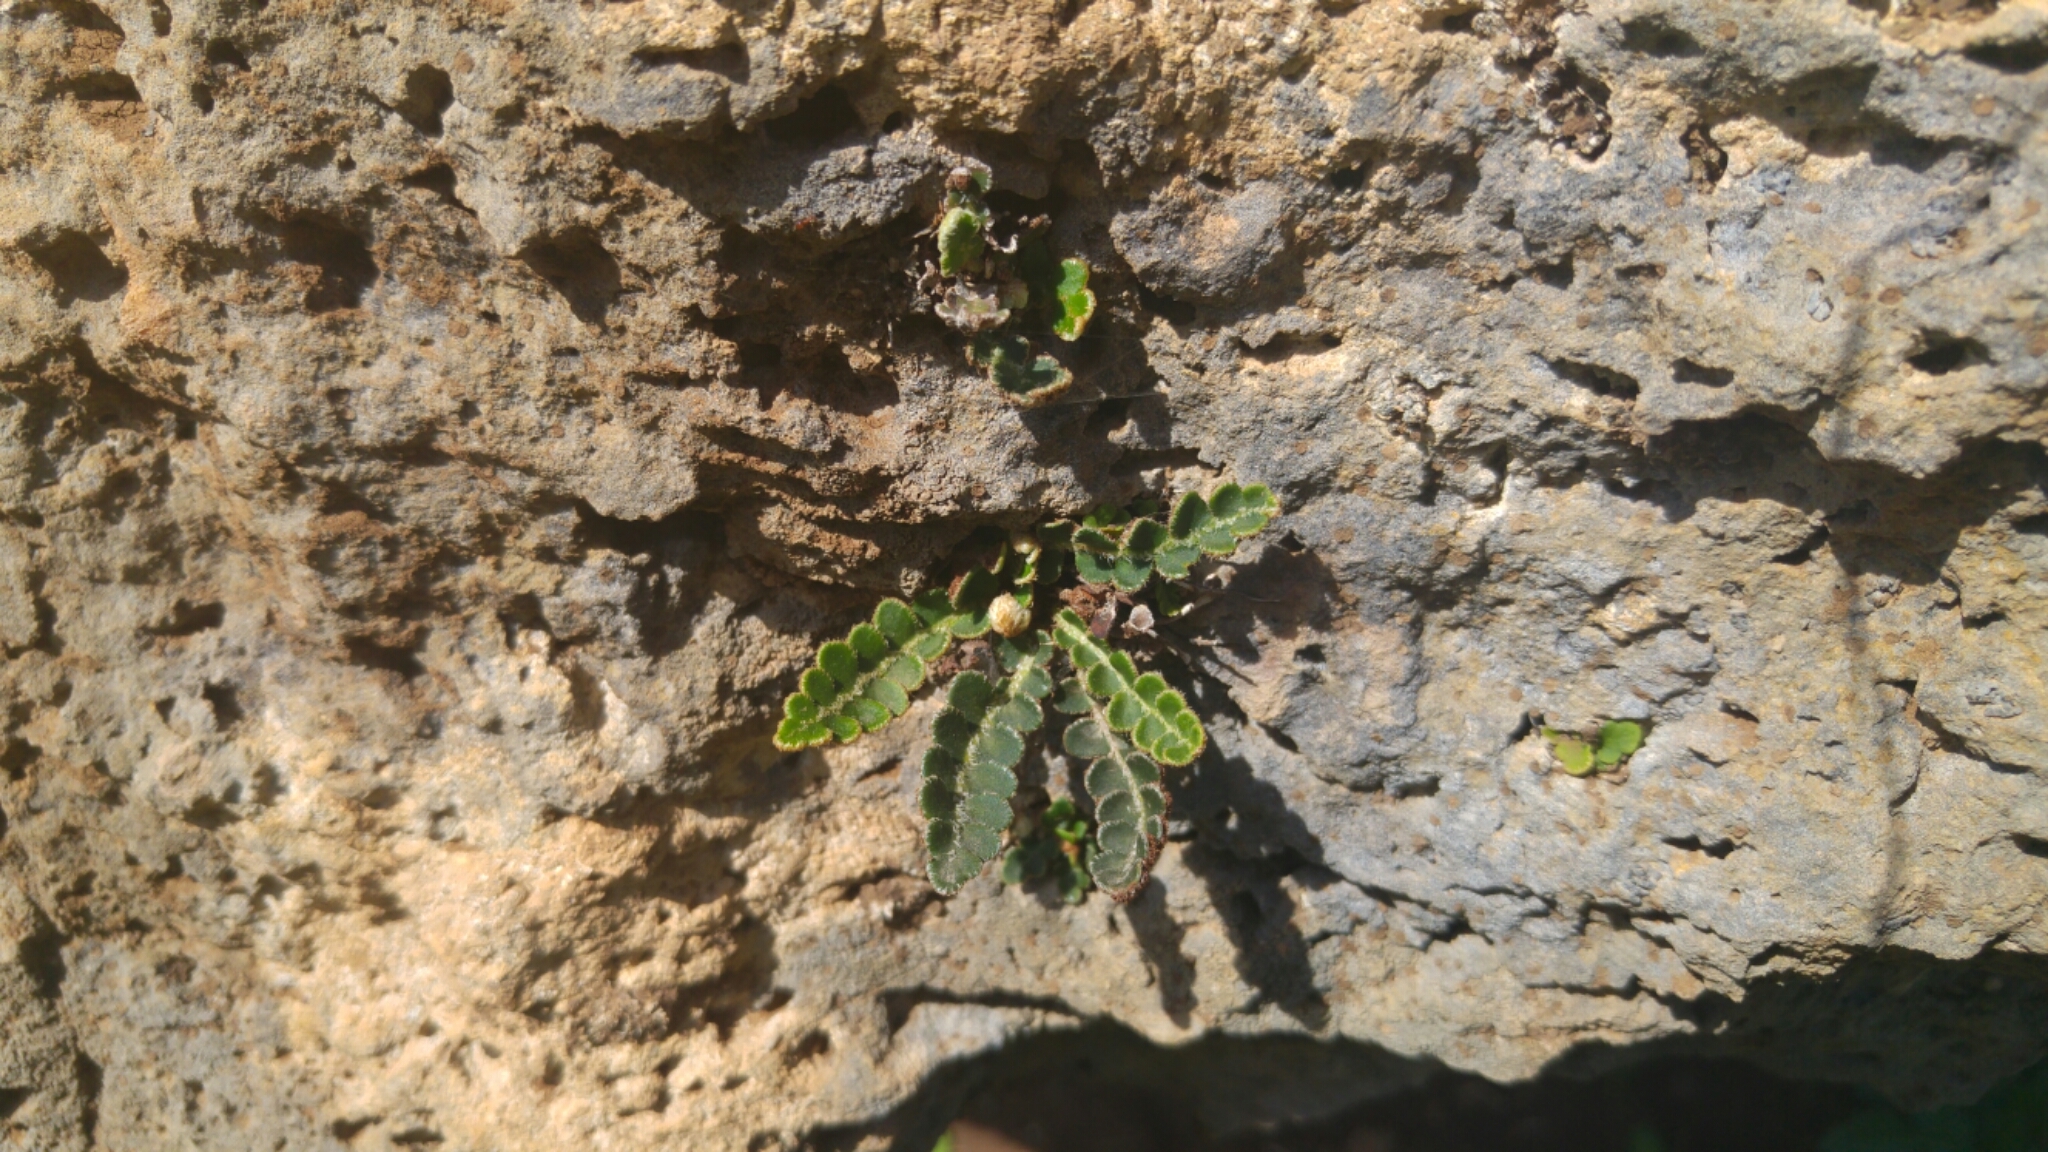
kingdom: Plantae
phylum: Tracheophyta
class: Polypodiopsida
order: Polypodiales
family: Aspleniaceae
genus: Asplenium
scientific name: Asplenium ceterach
